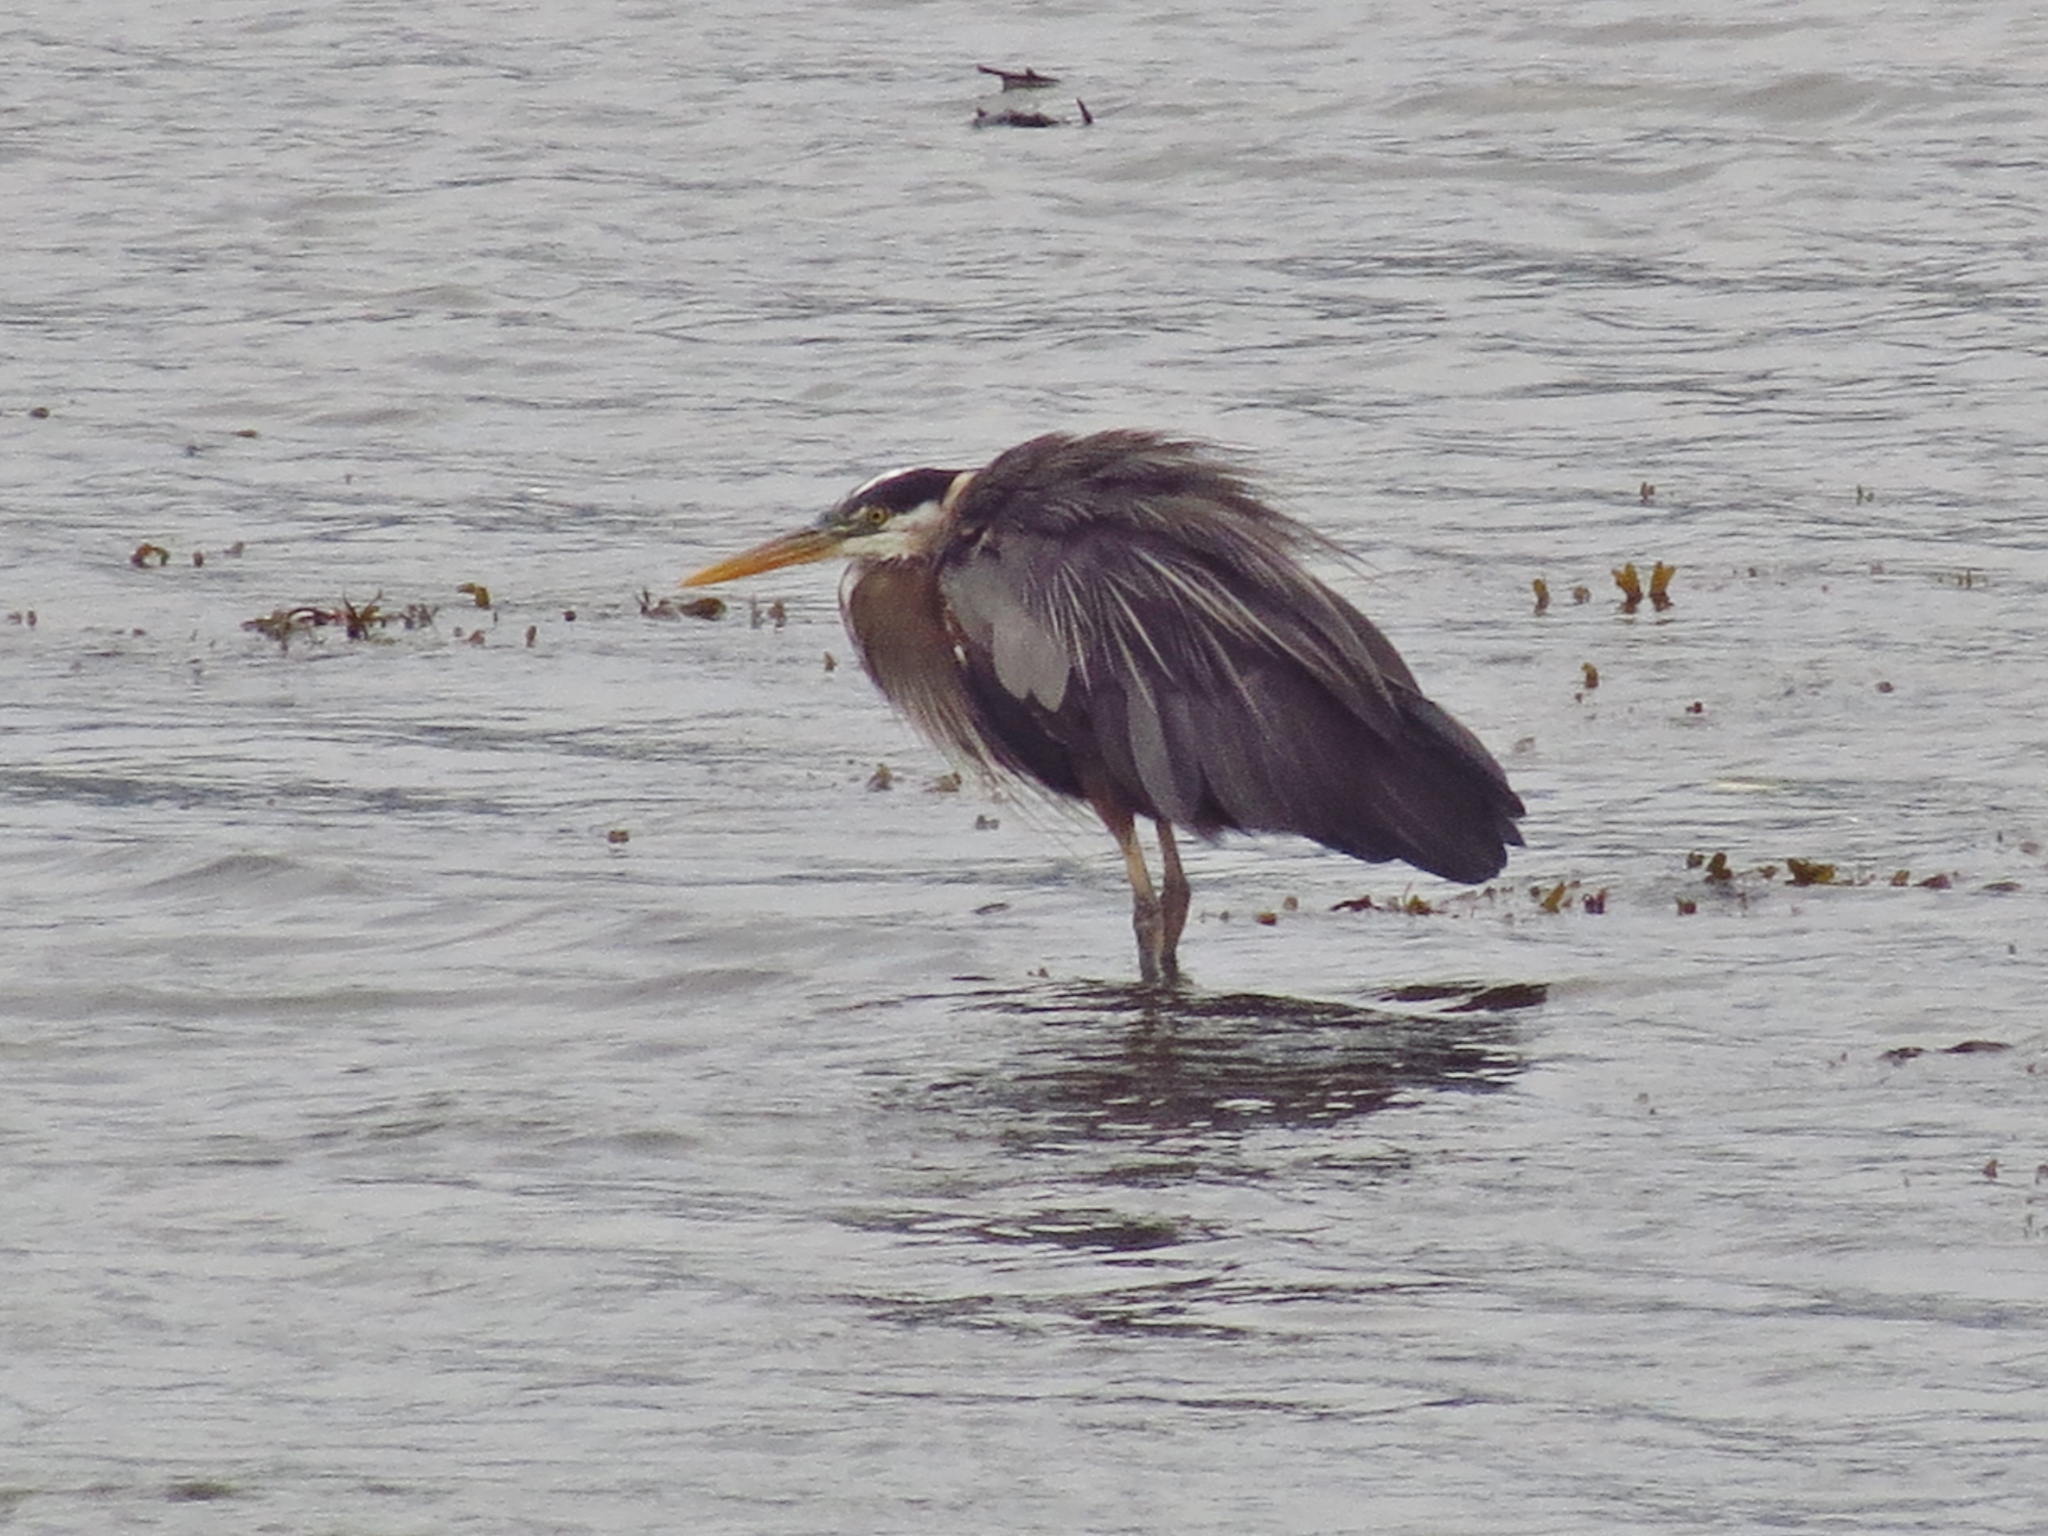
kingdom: Animalia
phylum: Chordata
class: Aves
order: Pelecaniformes
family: Ardeidae
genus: Ardea
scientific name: Ardea herodias
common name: Great blue heron
